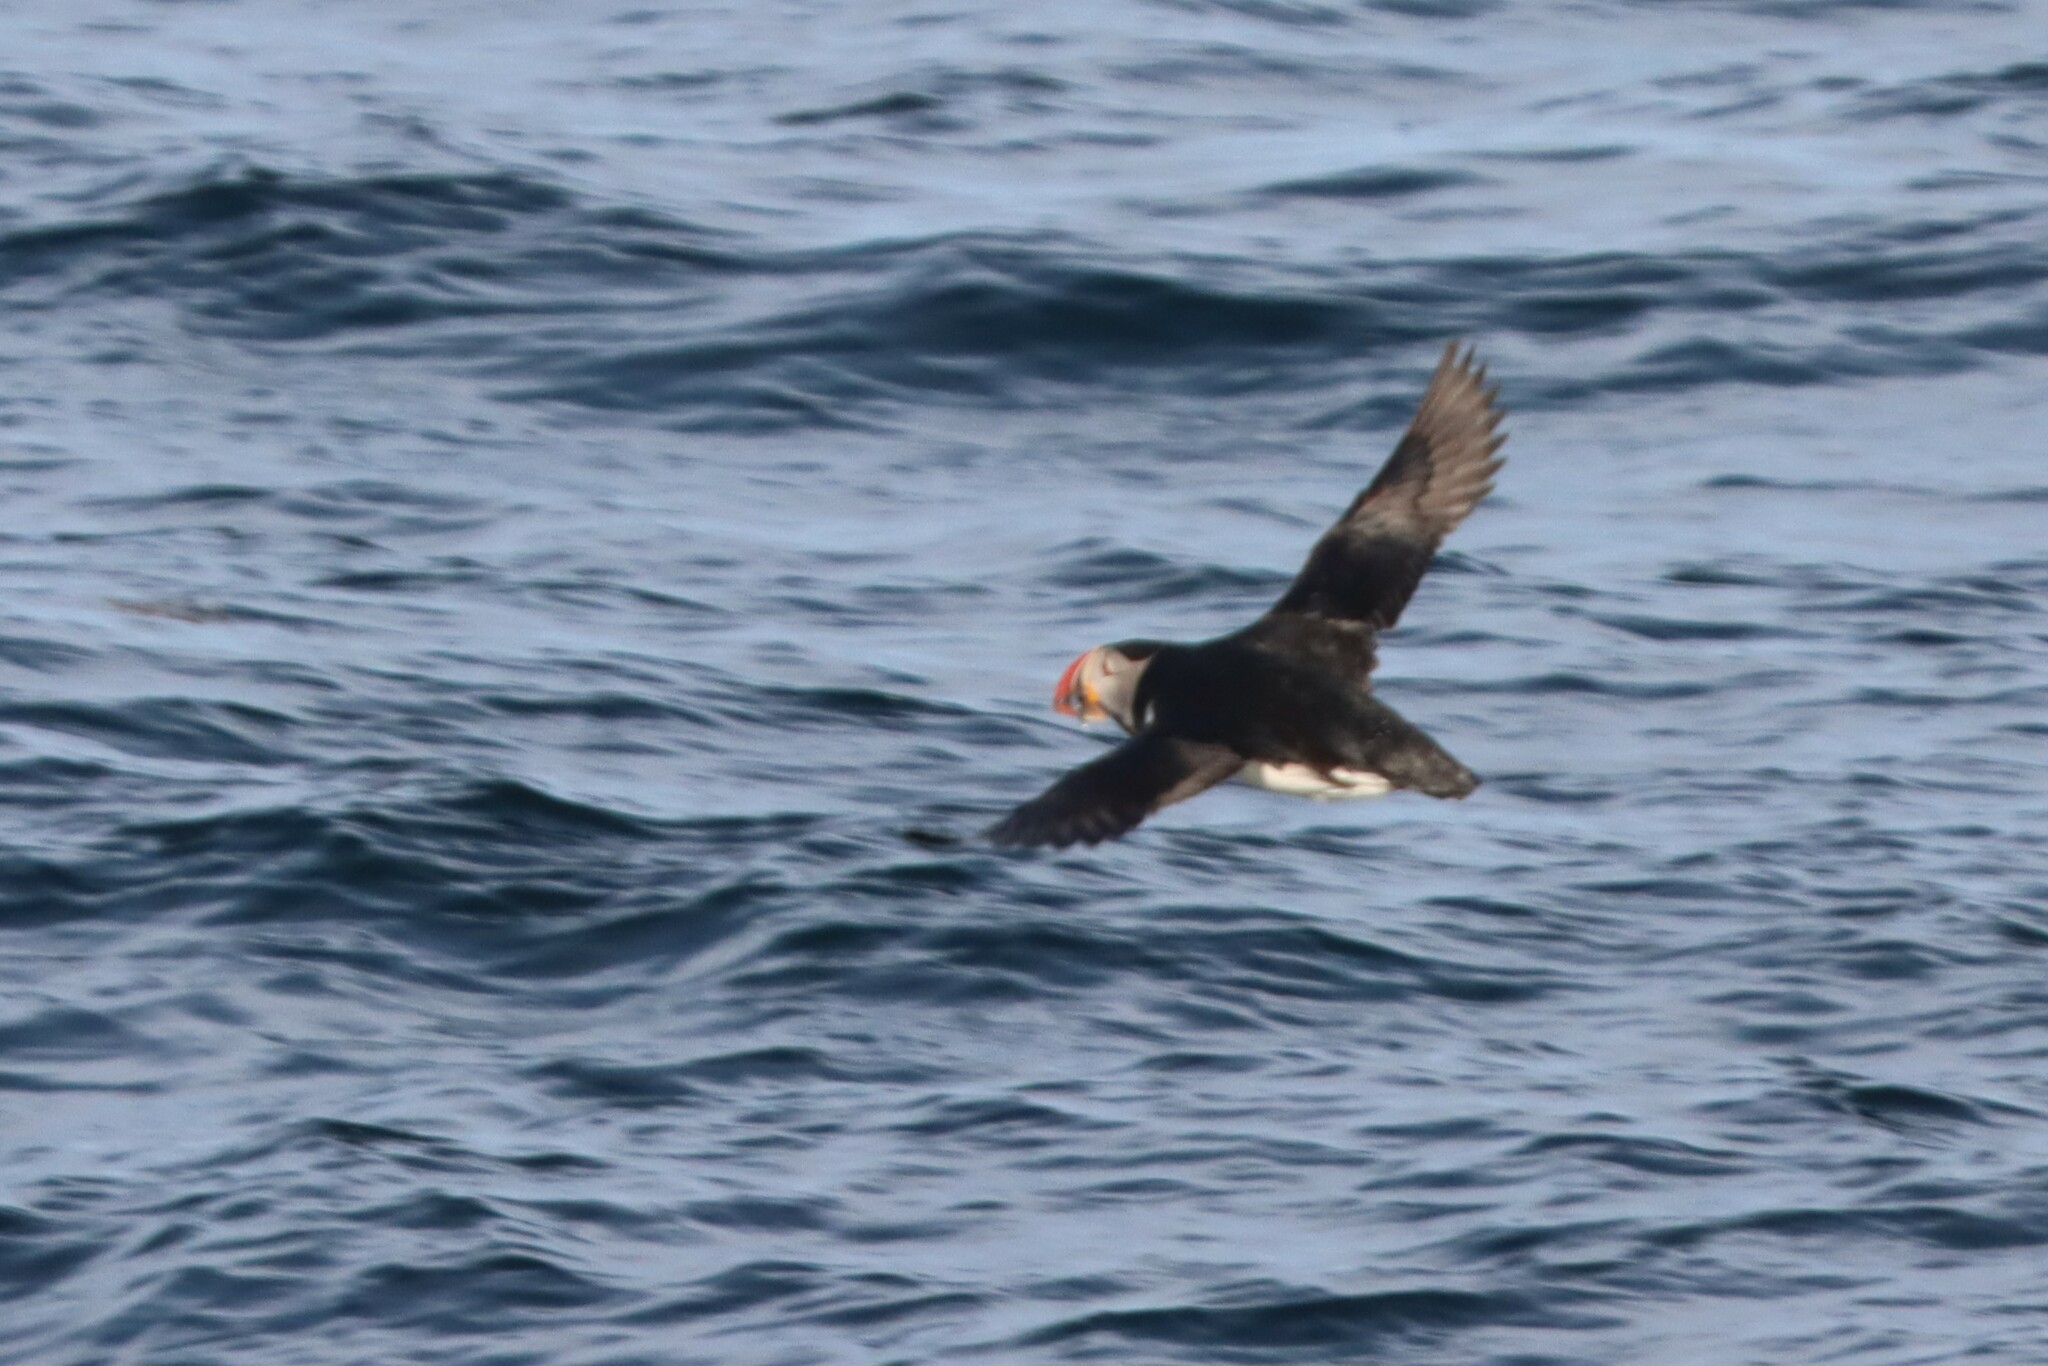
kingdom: Animalia
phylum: Chordata
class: Aves
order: Charadriiformes
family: Alcidae
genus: Fratercula
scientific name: Fratercula arctica
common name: Atlantic puffin
